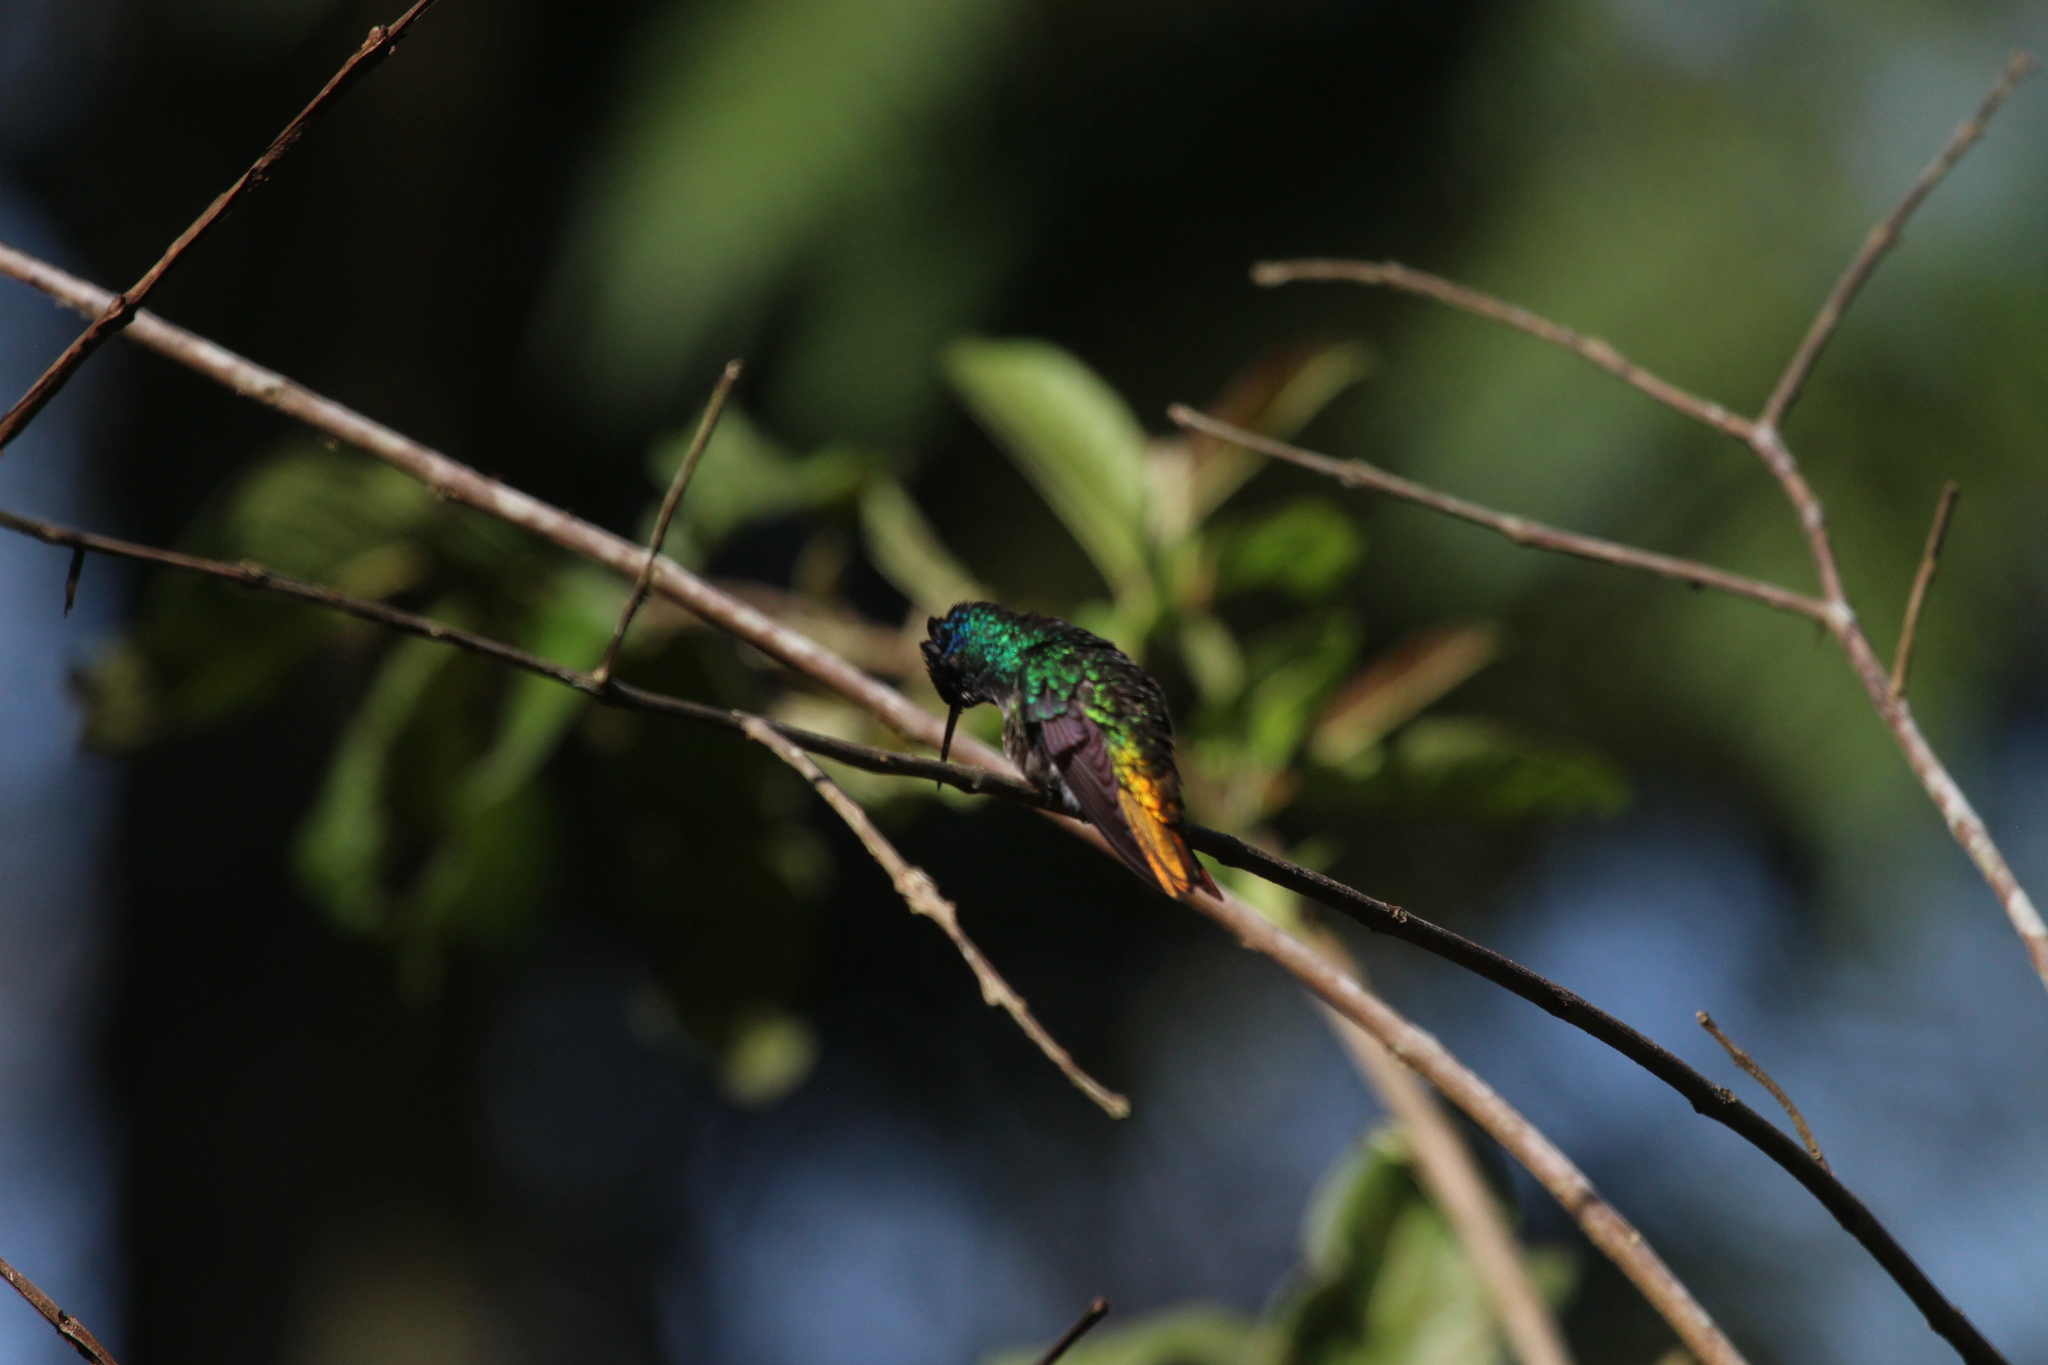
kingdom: Animalia
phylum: Chordata
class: Aves
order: Apodiformes
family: Trochilidae
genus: Chrysuronia
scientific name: Chrysuronia oenone
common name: Golden-tailed sapphire
